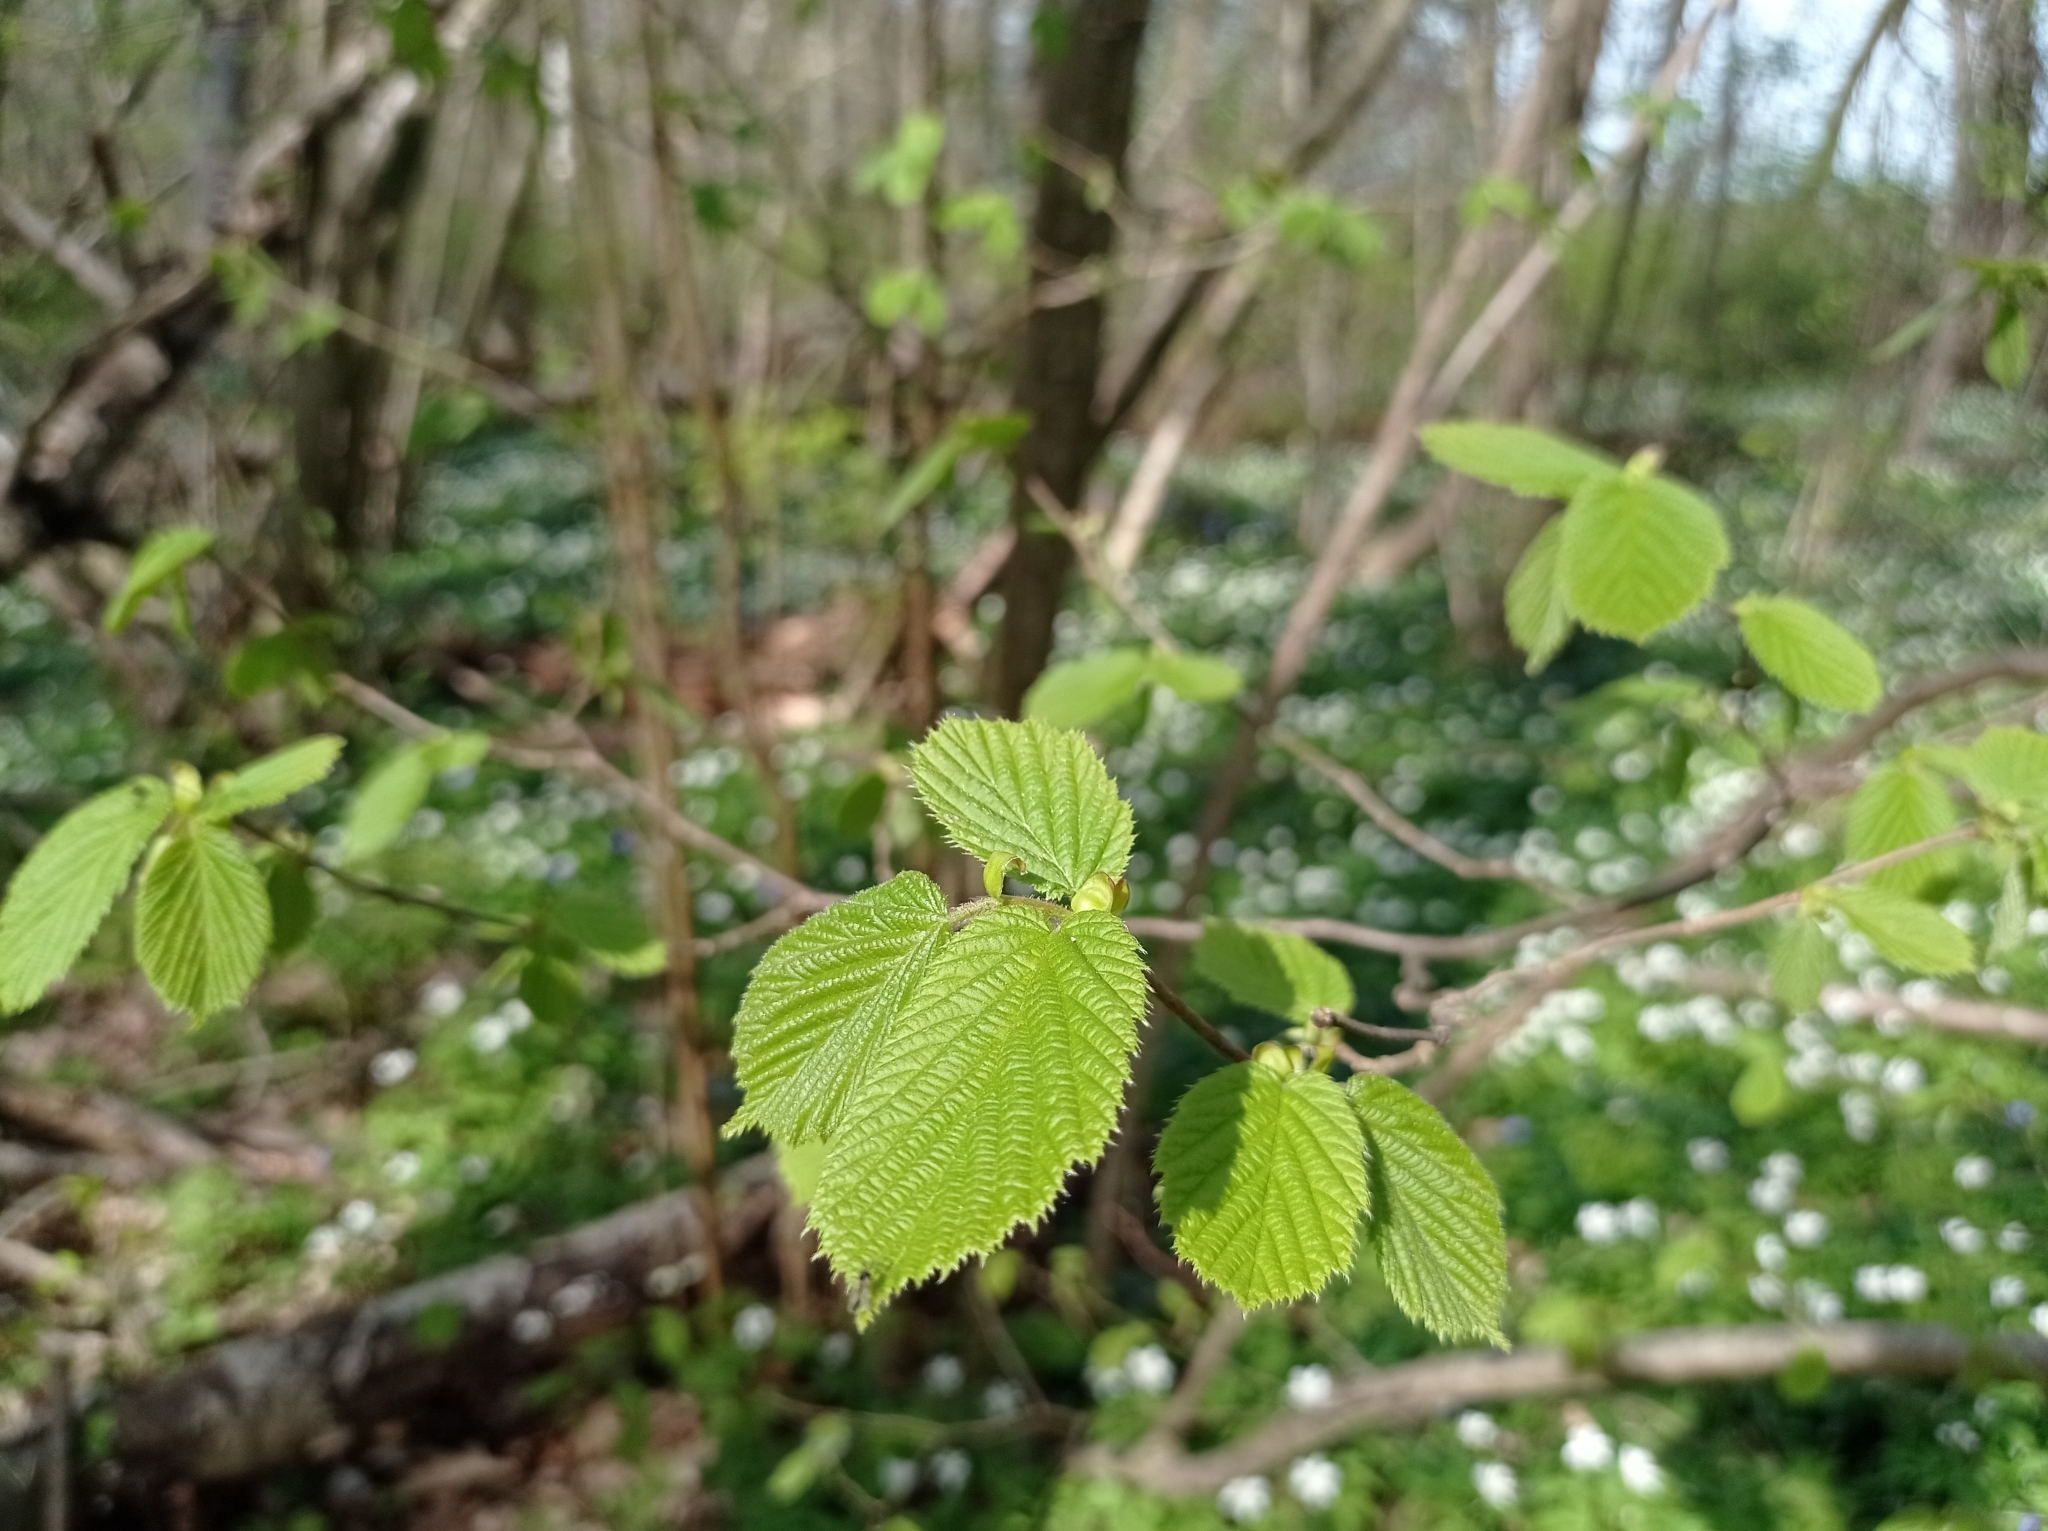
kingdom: Plantae
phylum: Tracheophyta
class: Magnoliopsida
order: Fagales
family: Betulaceae
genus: Corylus
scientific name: Corylus avellana
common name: European hazel
